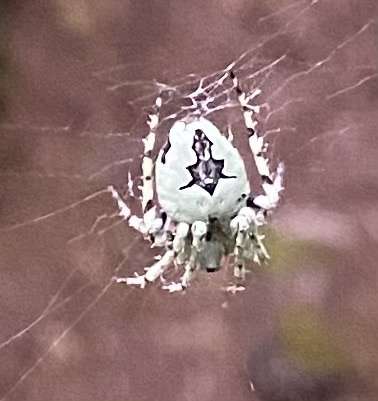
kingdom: Animalia
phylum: Arthropoda
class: Arachnida
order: Araneae
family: Araneidae
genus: Eustala
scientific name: Eustala anastera
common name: Orb weavers
